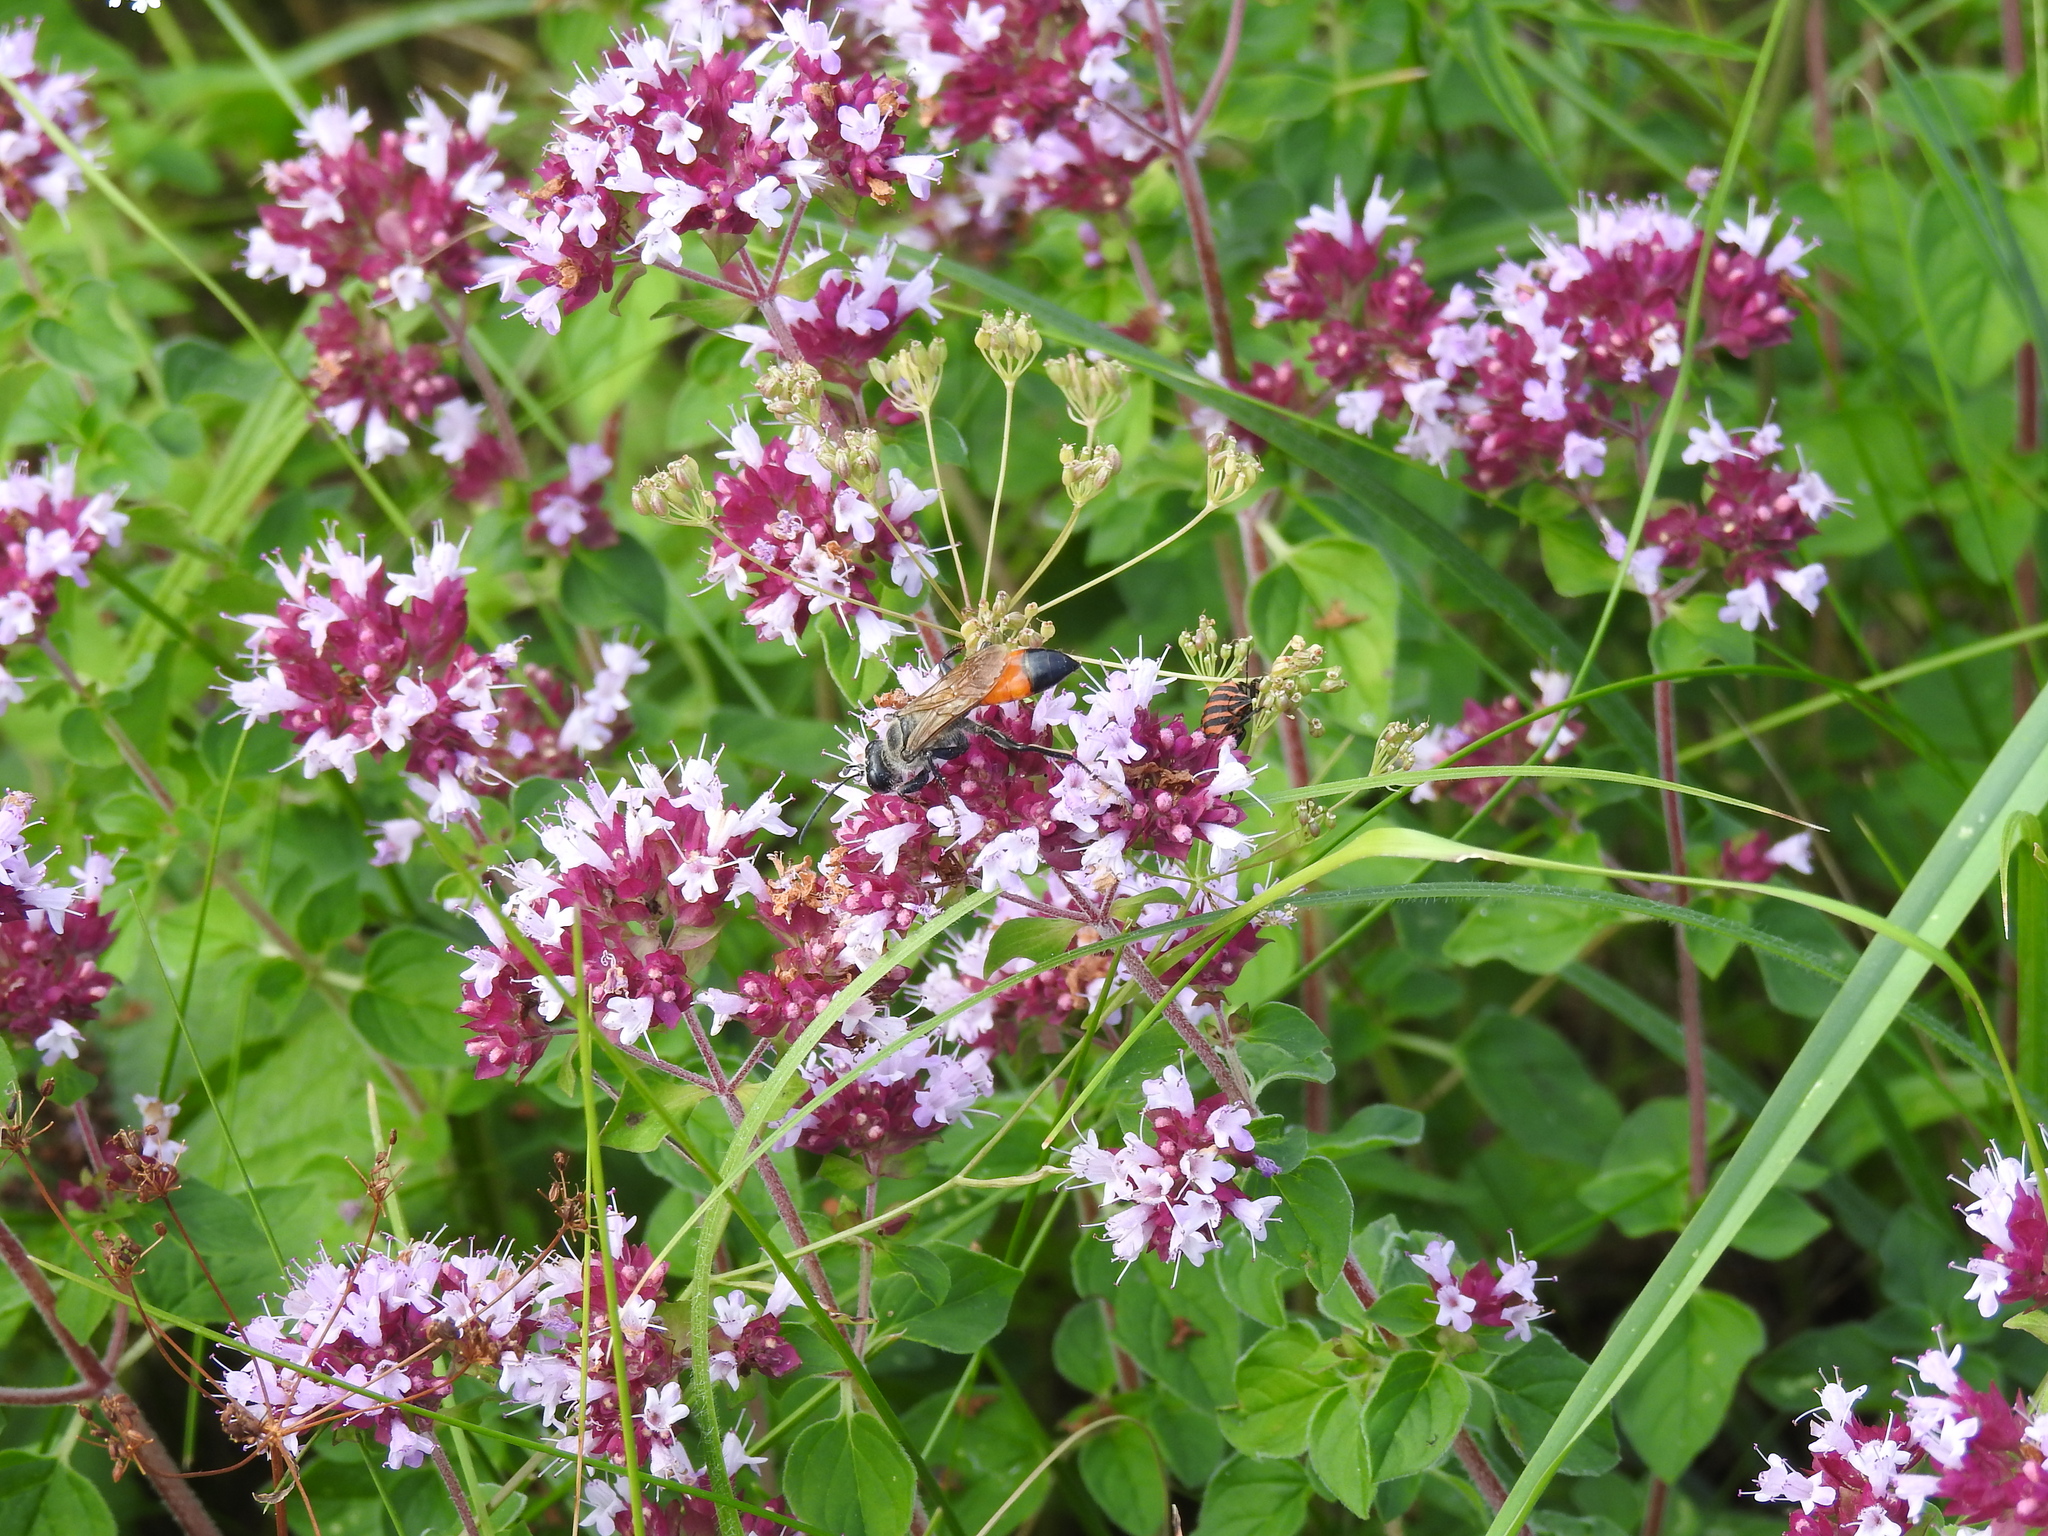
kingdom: Animalia
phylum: Arthropoda
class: Insecta
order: Hymenoptera
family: Sphecidae
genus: Sphex
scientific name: Sphex funerarius
